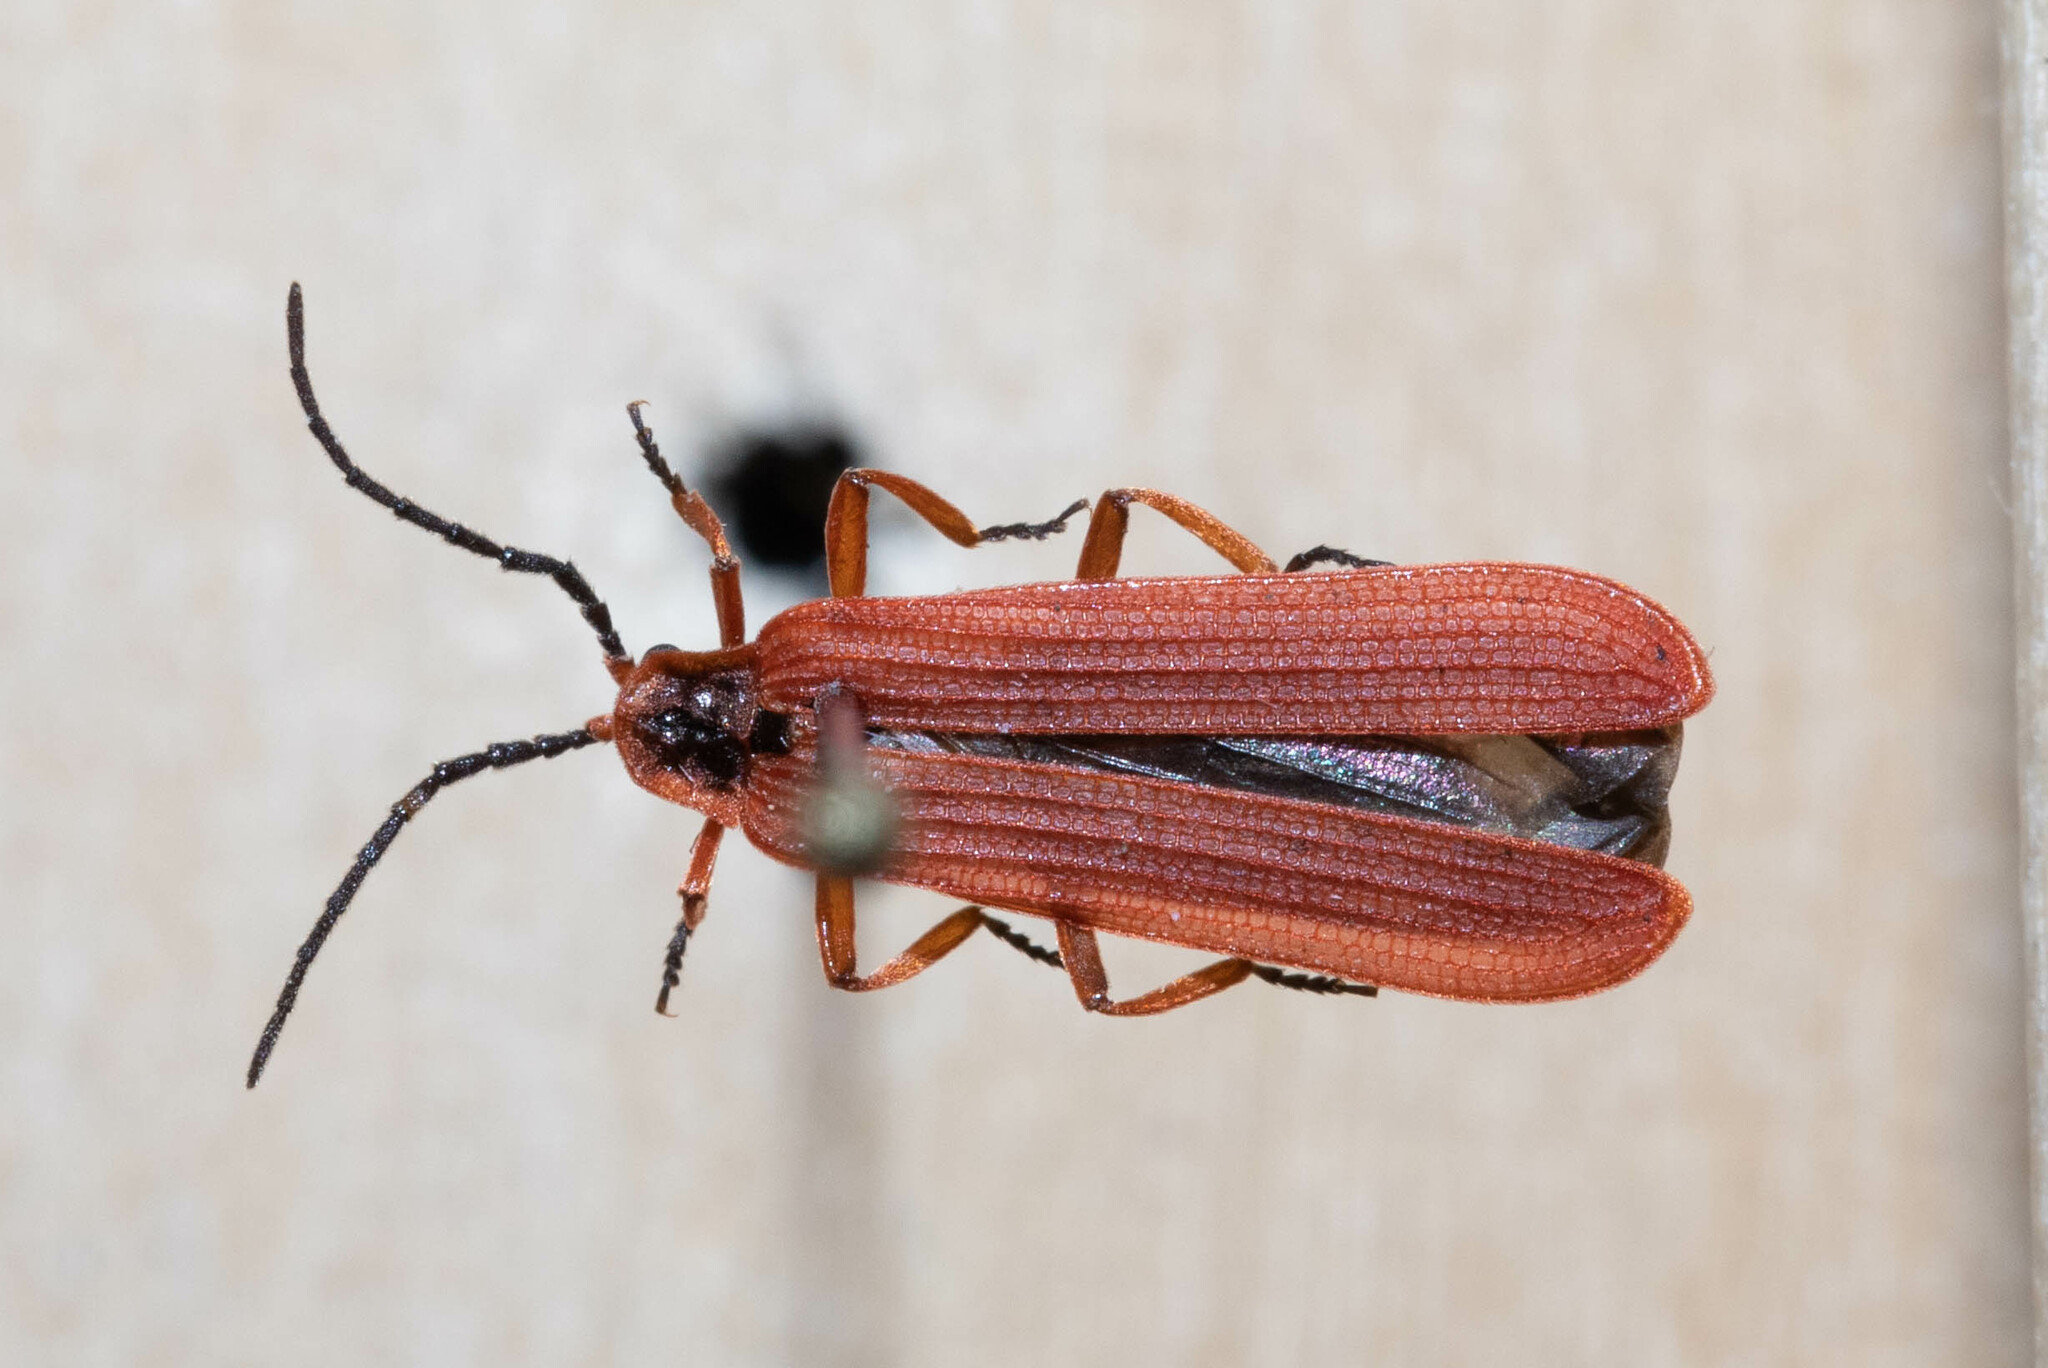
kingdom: Animalia
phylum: Arthropoda
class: Insecta
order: Coleoptera
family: Lycidae
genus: Dictyoptera
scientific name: Dictyoptera simplicipes
